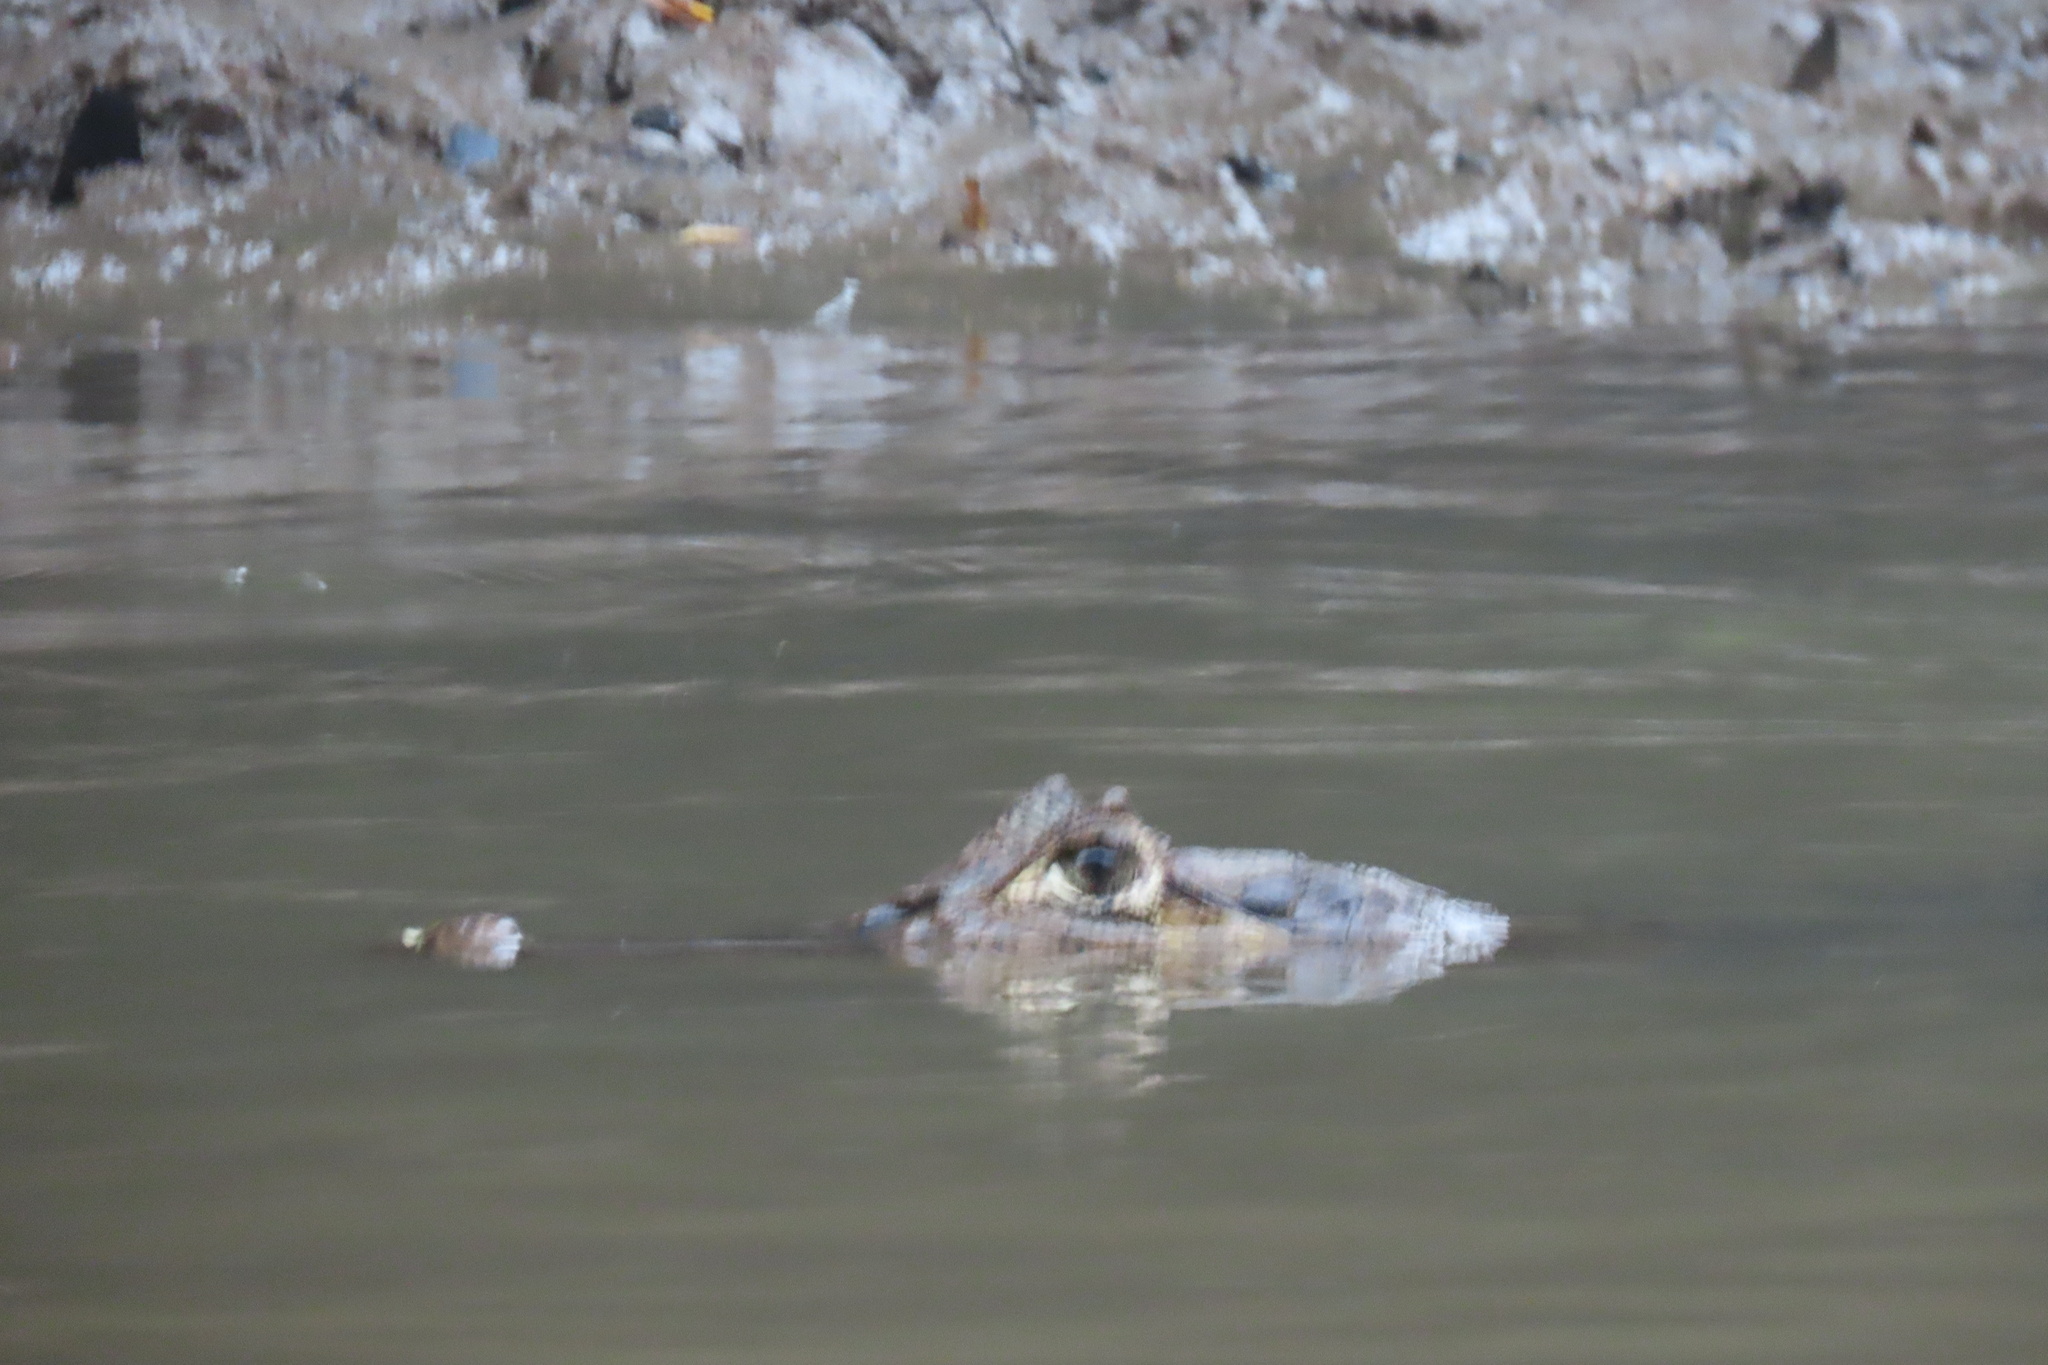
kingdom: Animalia
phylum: Chordata
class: Crocodylia
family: Alligatoridae
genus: Caiman
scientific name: Caiman crocodilus
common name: Common caiman
